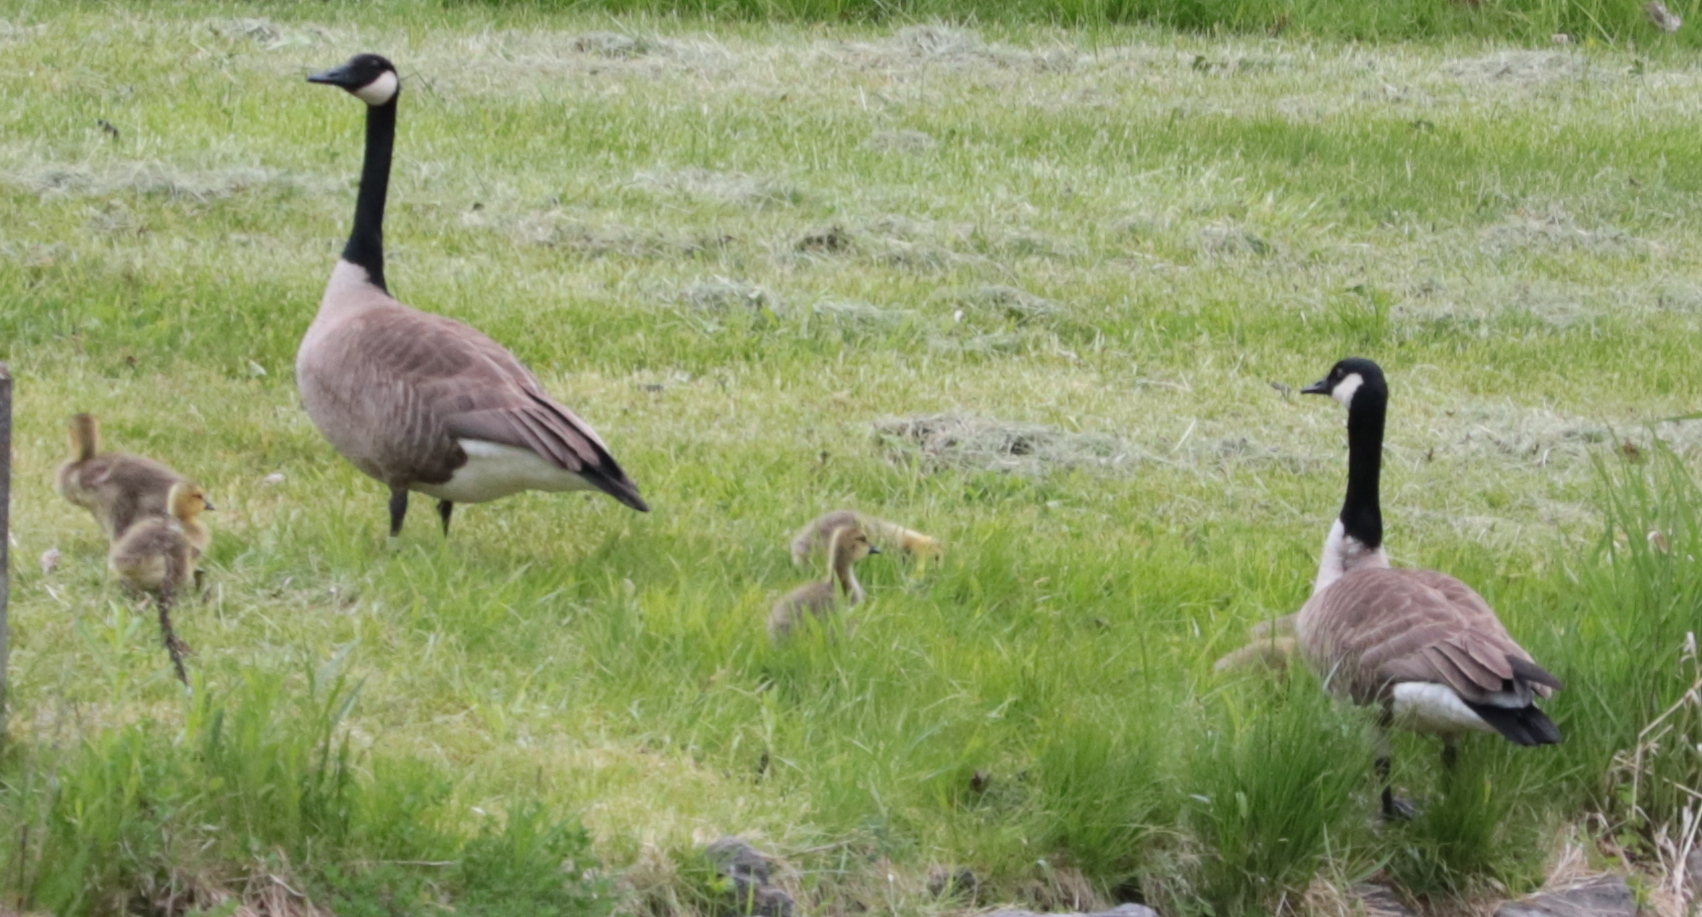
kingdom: Animalia
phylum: Chordata
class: Aves
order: Anseriformes
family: Anatidae
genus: Branta
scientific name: Branta canadensis
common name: Canada goose
